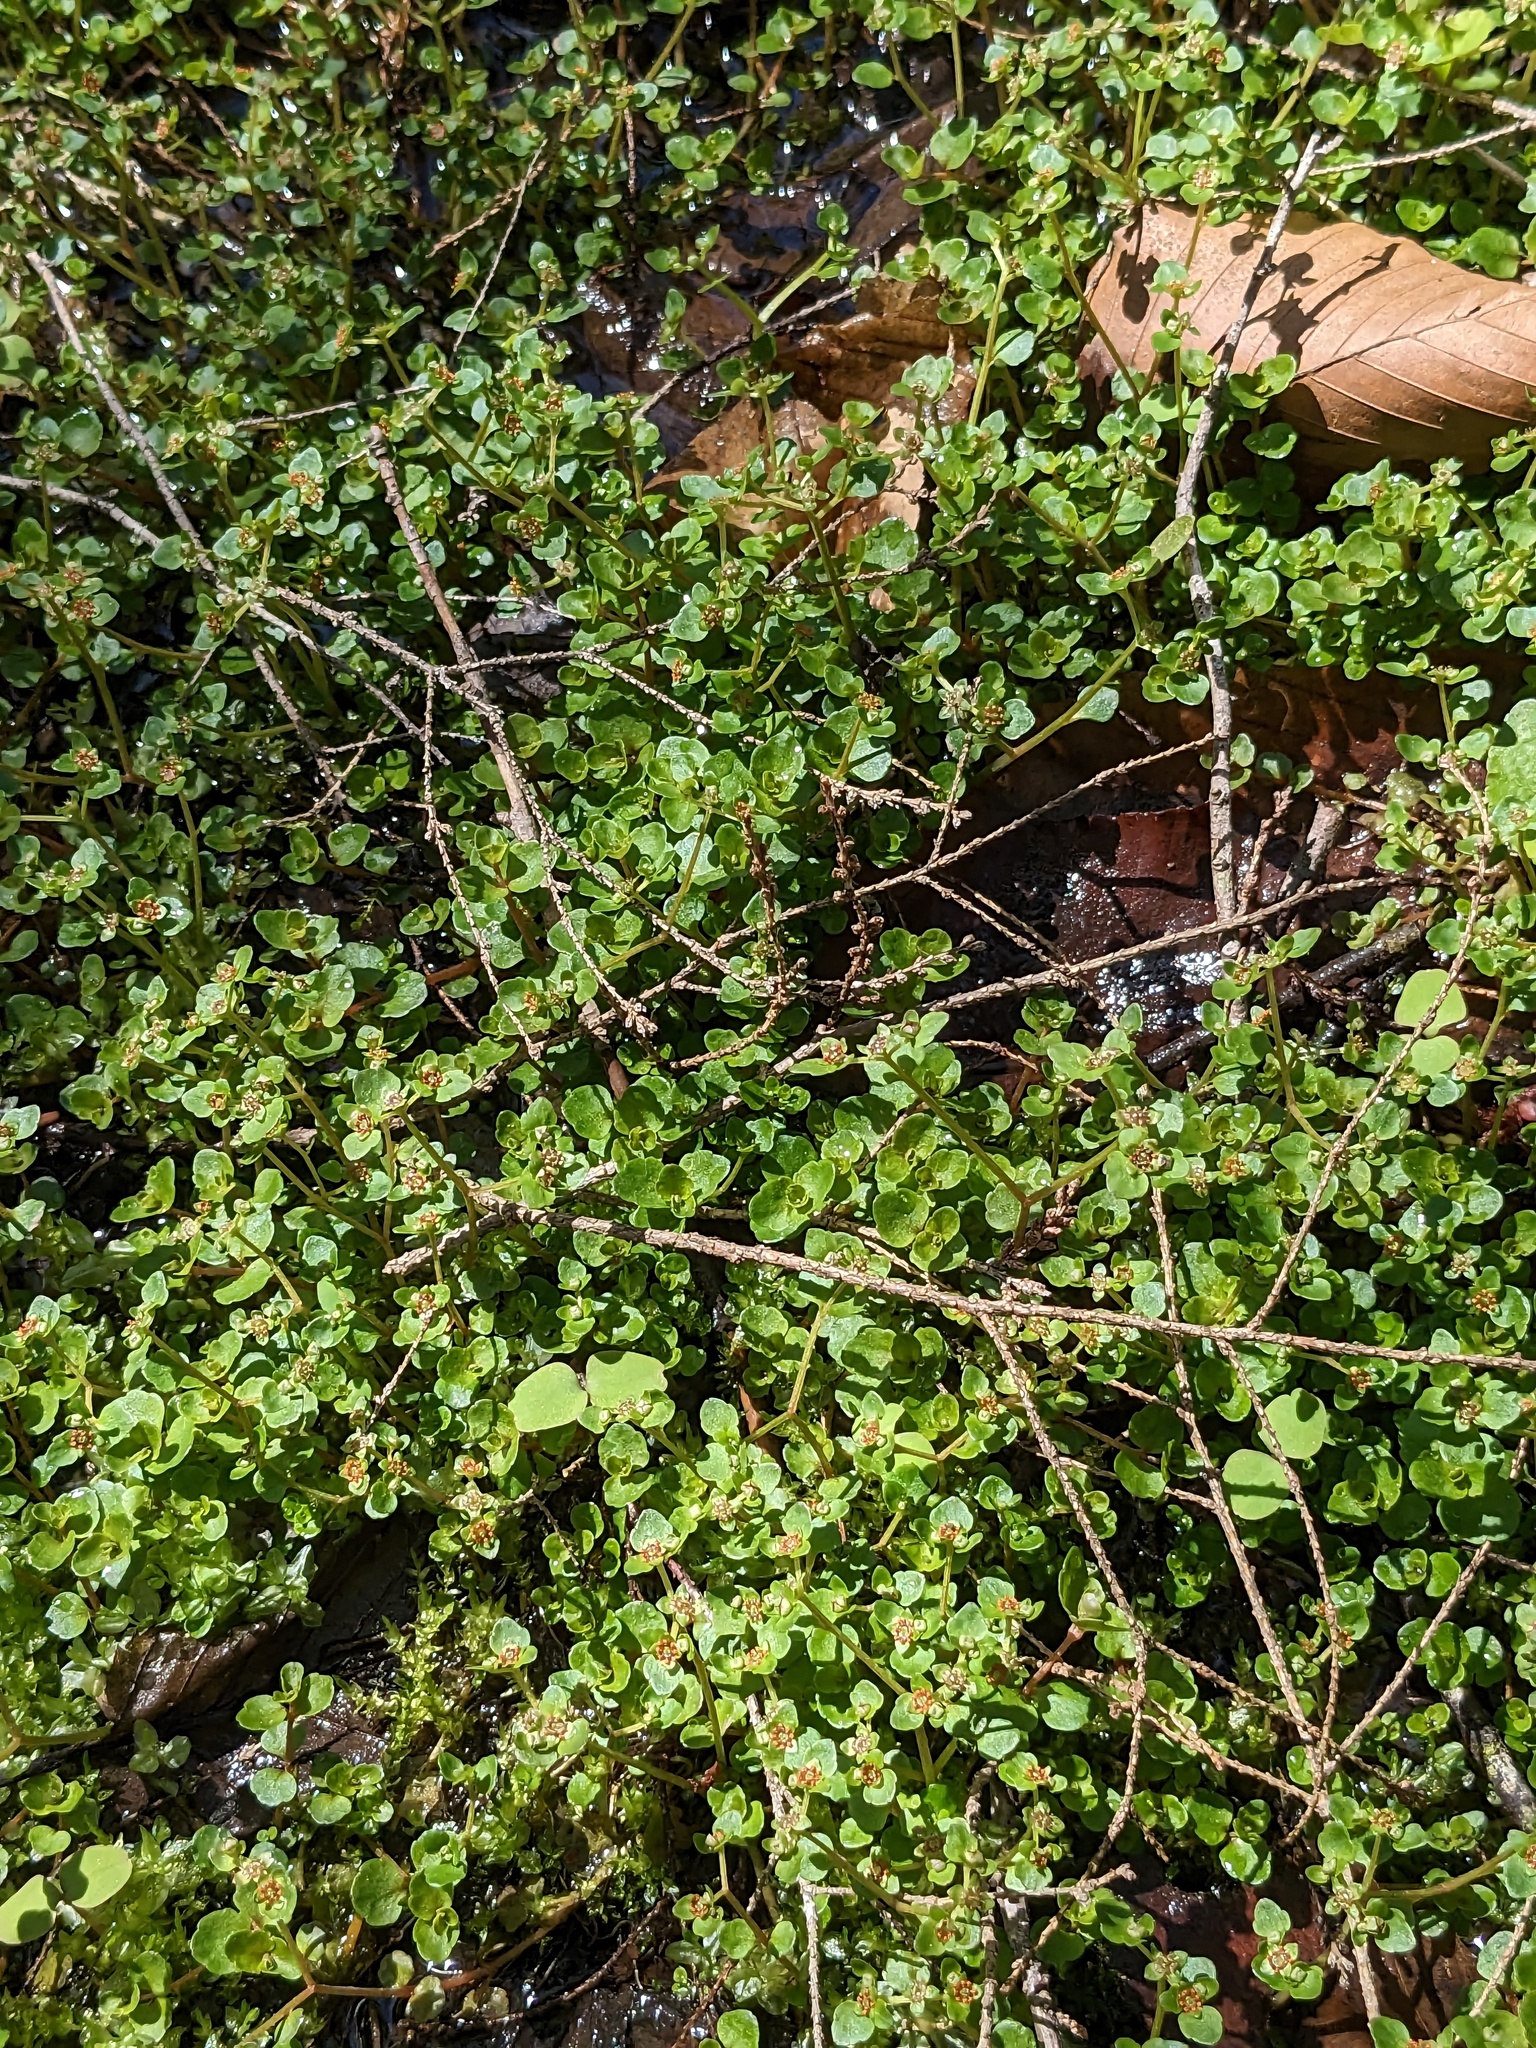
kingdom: Plantae
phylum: Tracheophyta
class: Magnoliopsida
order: Saxifragales
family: Saxifragaceae
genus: Chrysosplenium
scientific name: Chrysosplenium americanum
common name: American golden-saxifrage
